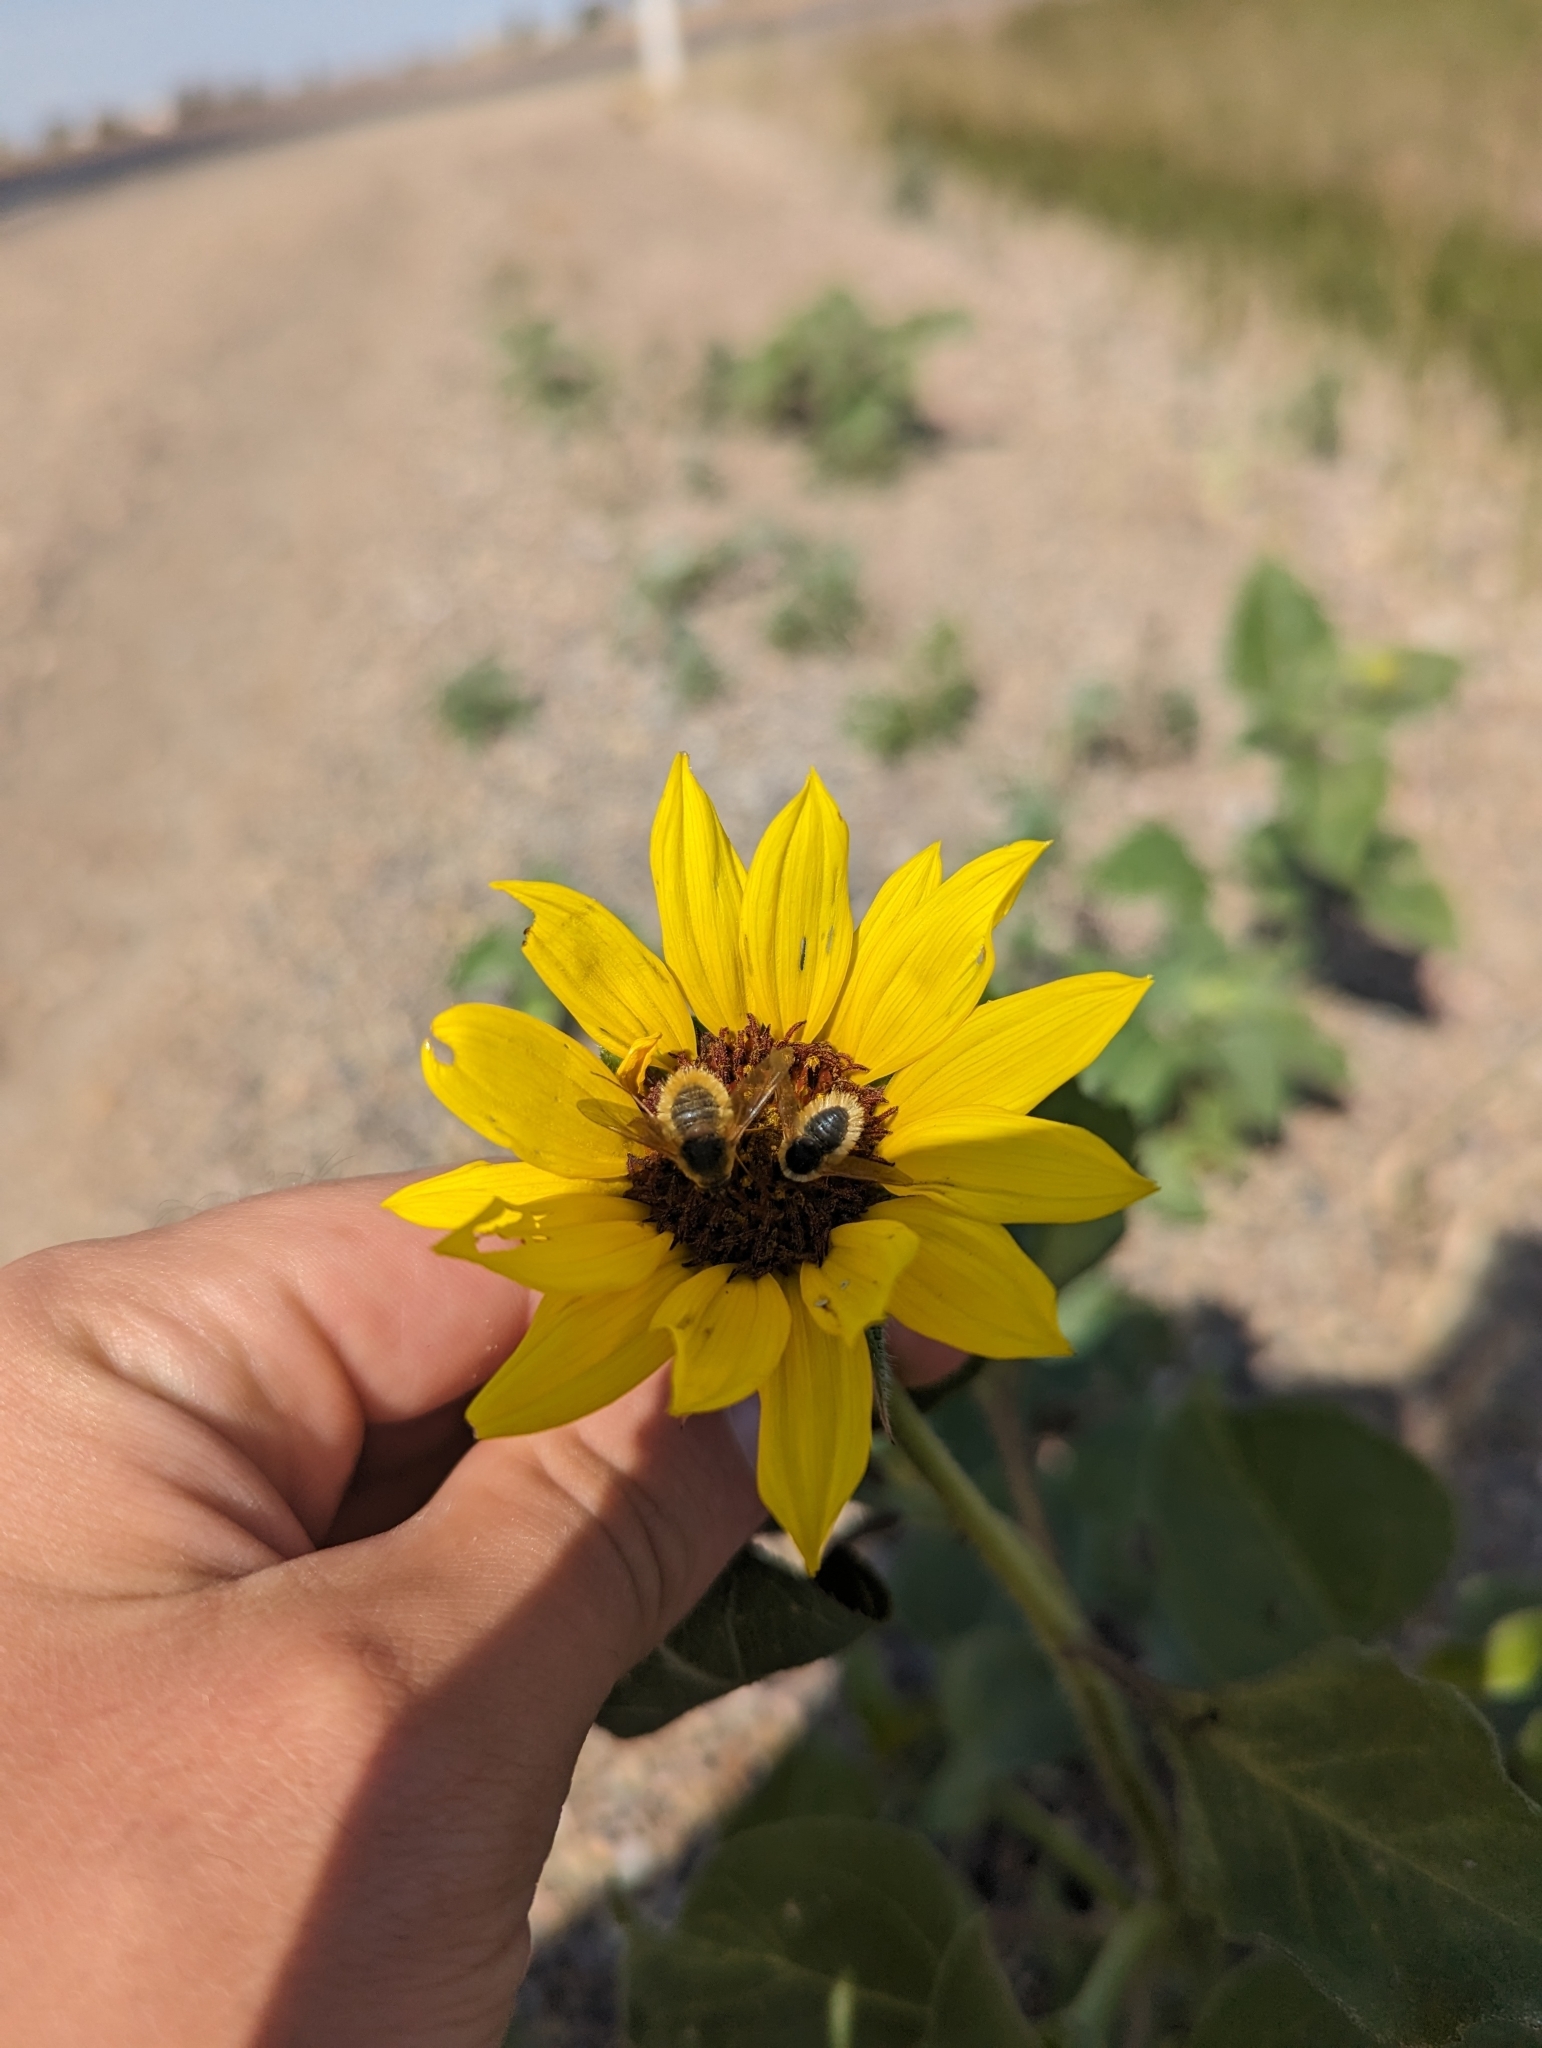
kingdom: Plantae
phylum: Tracheophyta
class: Magnoliopsida
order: Asterales
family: Asteraceae
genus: Helianthus
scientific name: Helianthus annuus
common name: Sunflower
